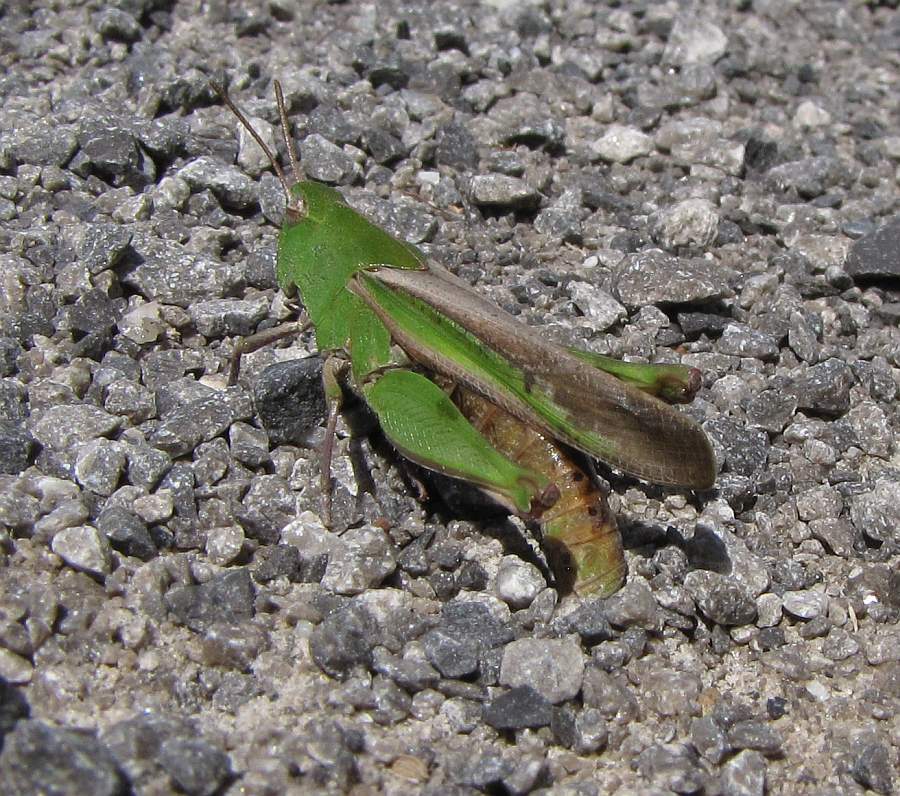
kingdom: Animalia
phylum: Arthropoda
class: Insecta
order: Orthoptera
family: Acrididae
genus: Chortophaga
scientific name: Chortophaga viridifasciata
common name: Green-striped grasshopper
